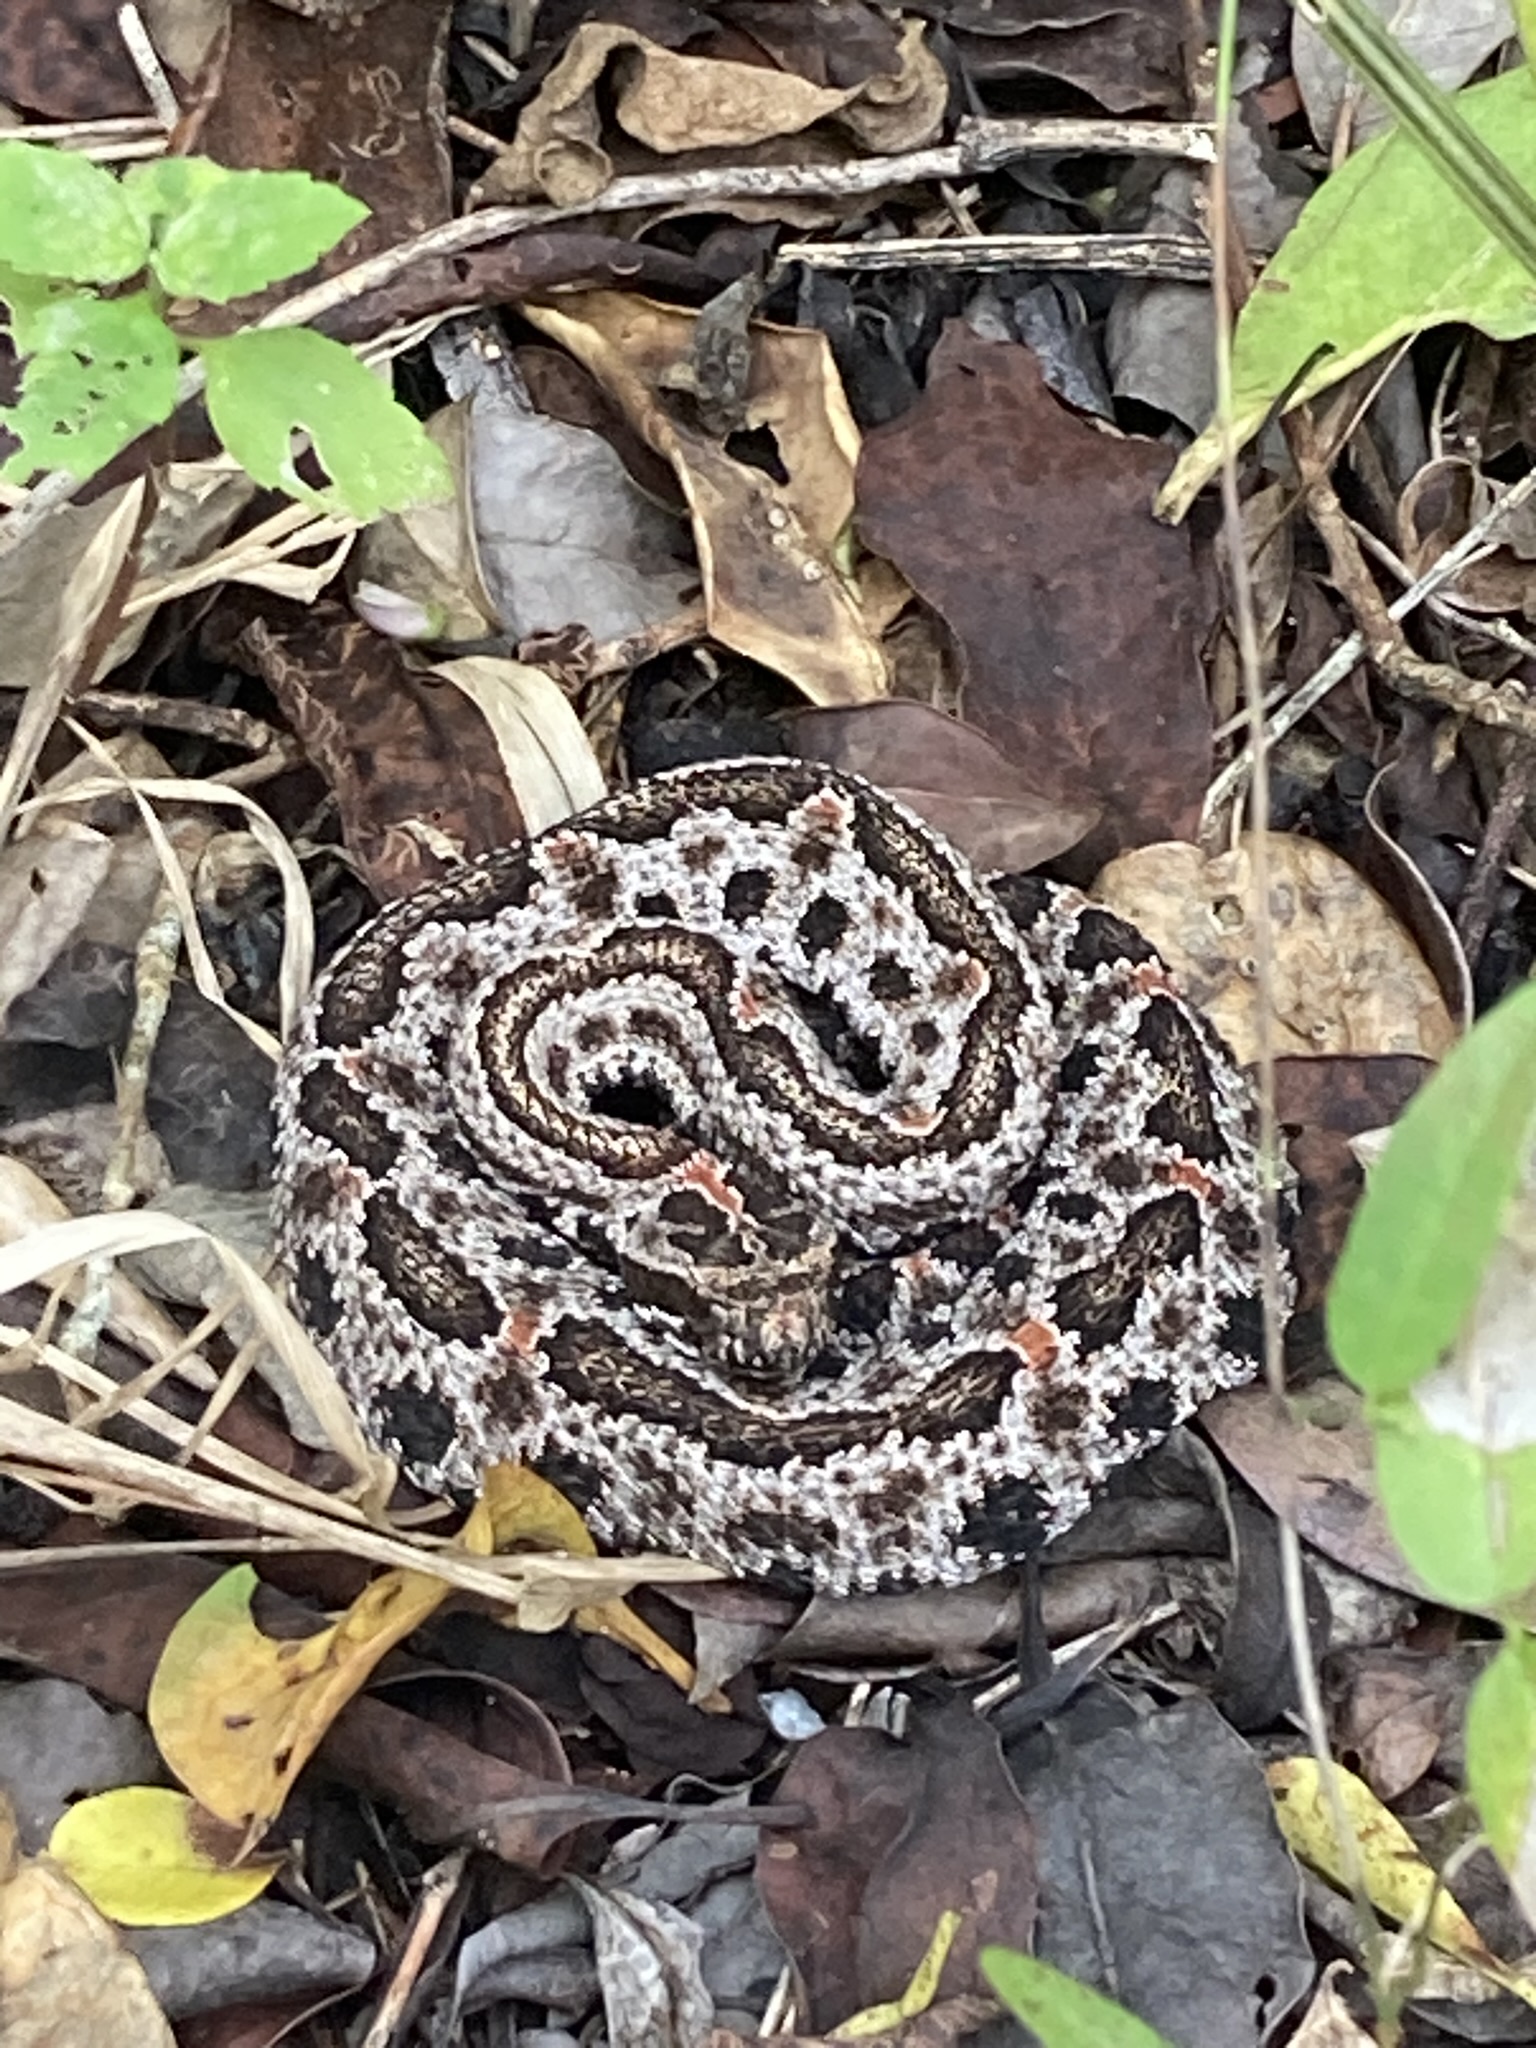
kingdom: Animalia
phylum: Chordata
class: Squamata
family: Viperidae
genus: Sistrurus
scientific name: Sistrurus miliarius
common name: Pygmy rattlesnake
